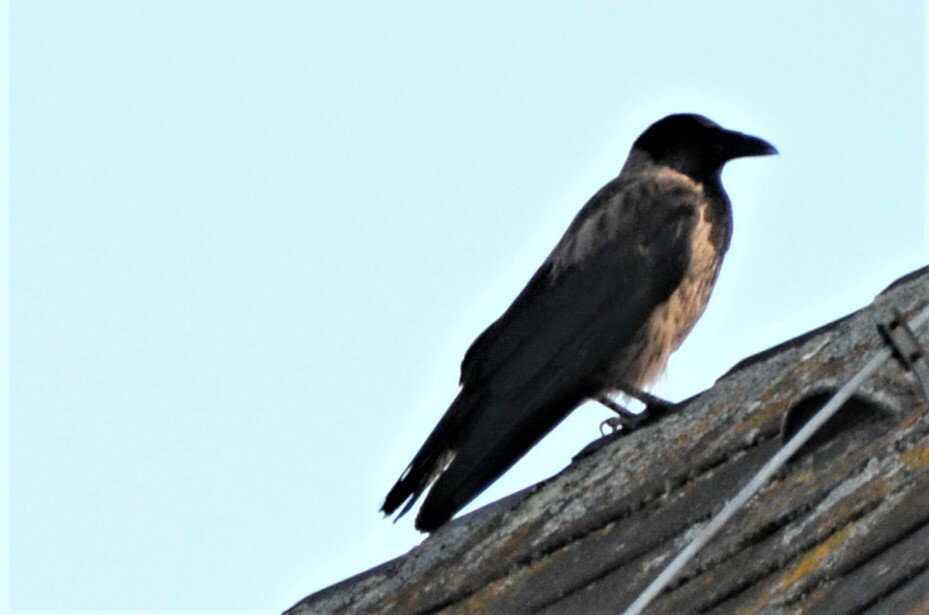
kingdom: Animalia
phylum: Chordata
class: Aves
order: Passeriformes
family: Corvidae
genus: Corvus
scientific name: Corvus
